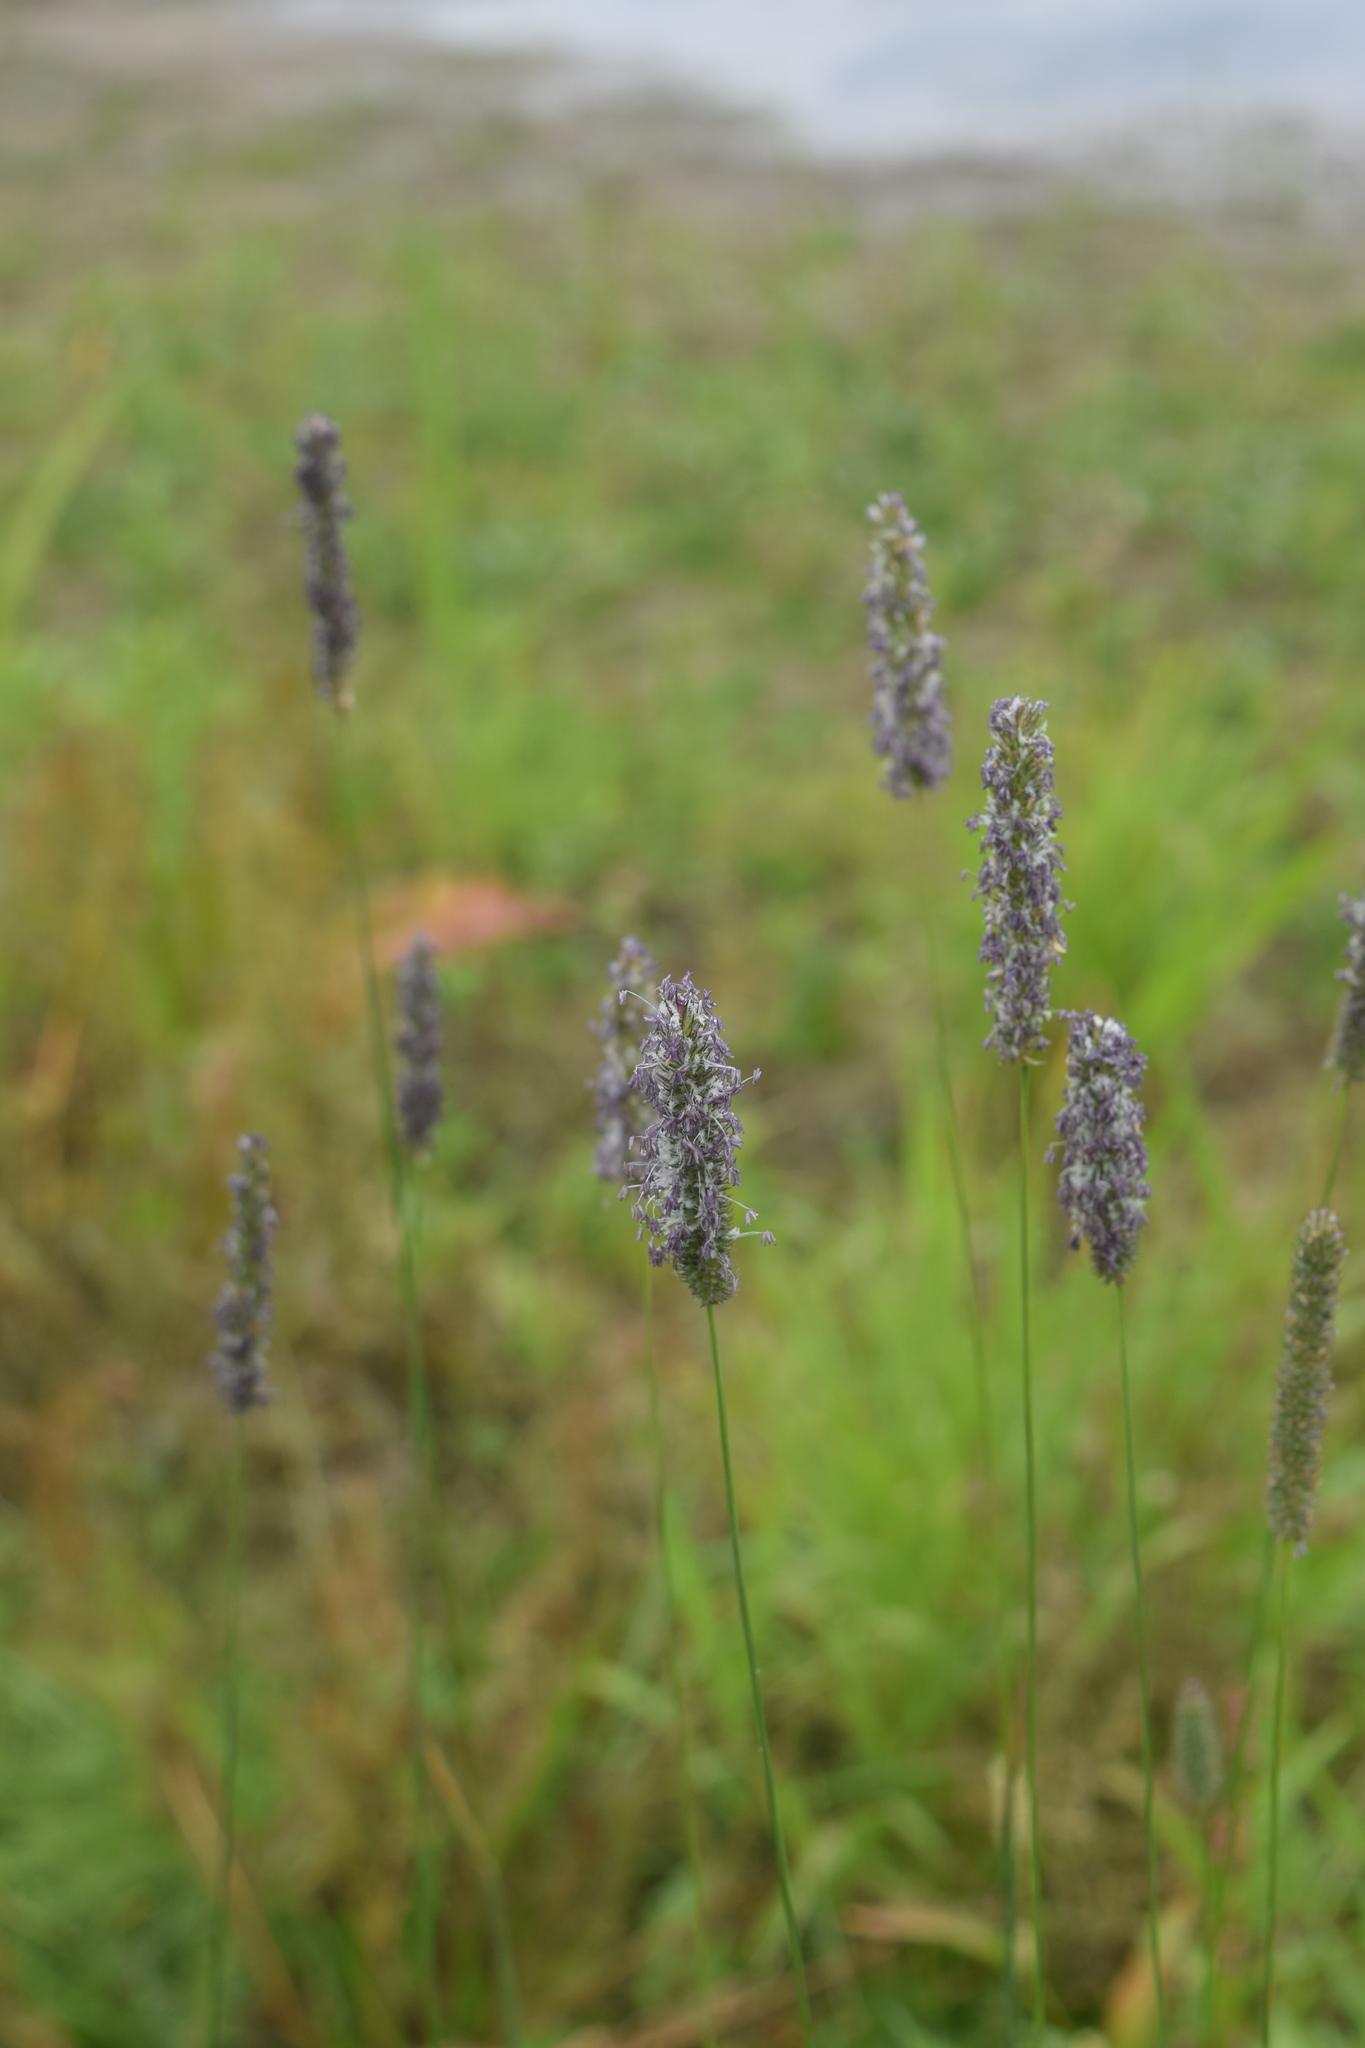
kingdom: Plantae
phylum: Tracheophyta
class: Liliopsida
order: Poales
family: Poaceae
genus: Phleum
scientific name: Phleum pratense
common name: Timothy grass
